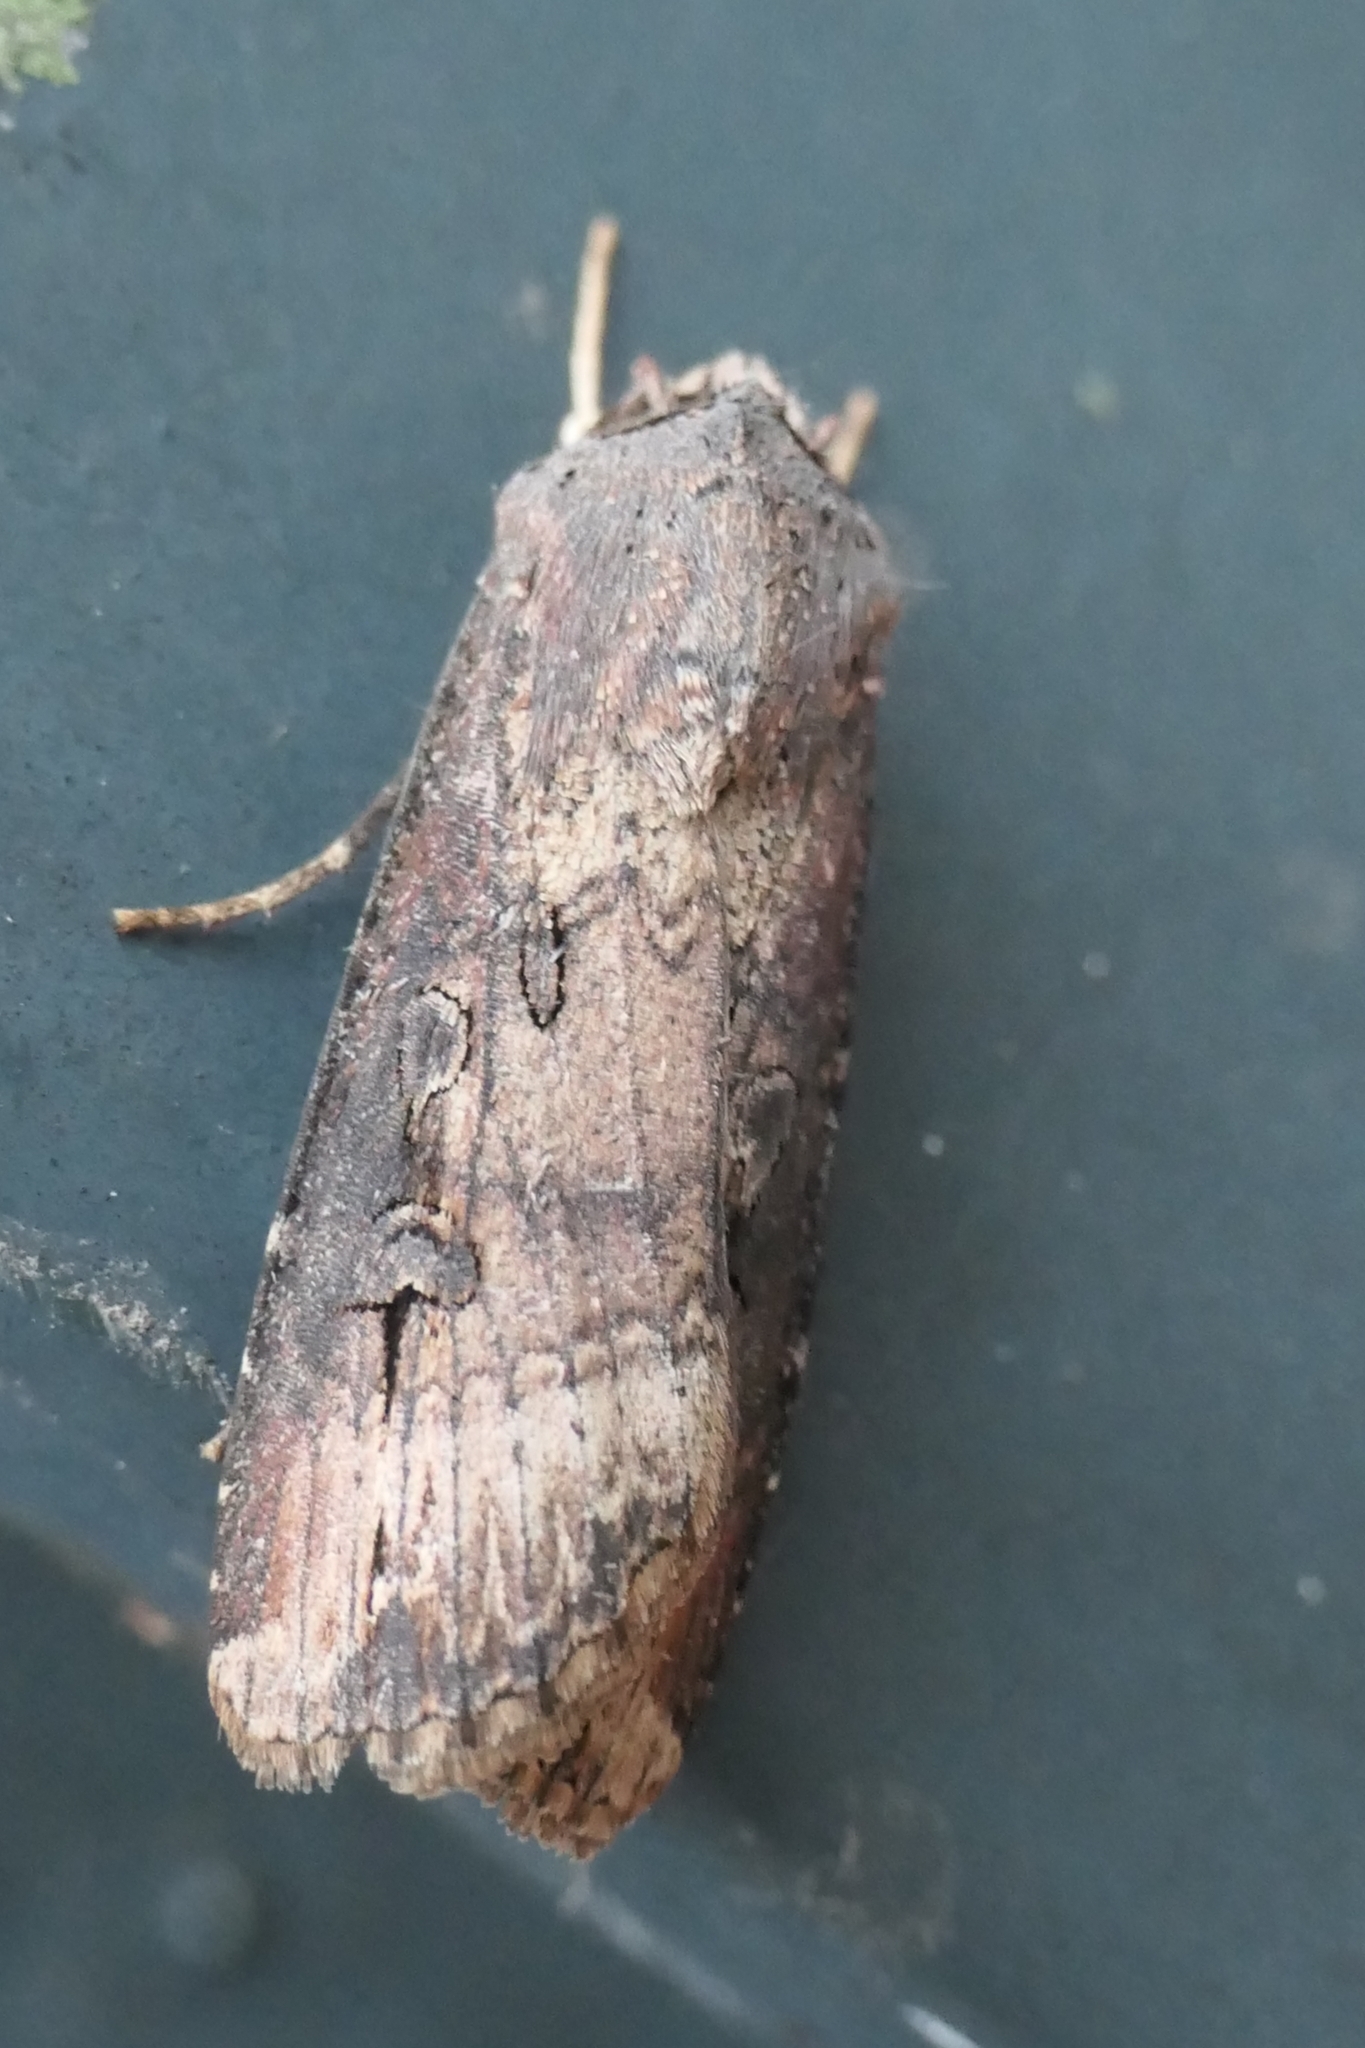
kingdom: Animalia
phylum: Arthropoda
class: Insecta
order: Lepidoptera
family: Noctuidae
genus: Agrotis
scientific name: Agrotis ipsilon
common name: Dark sword-grass
